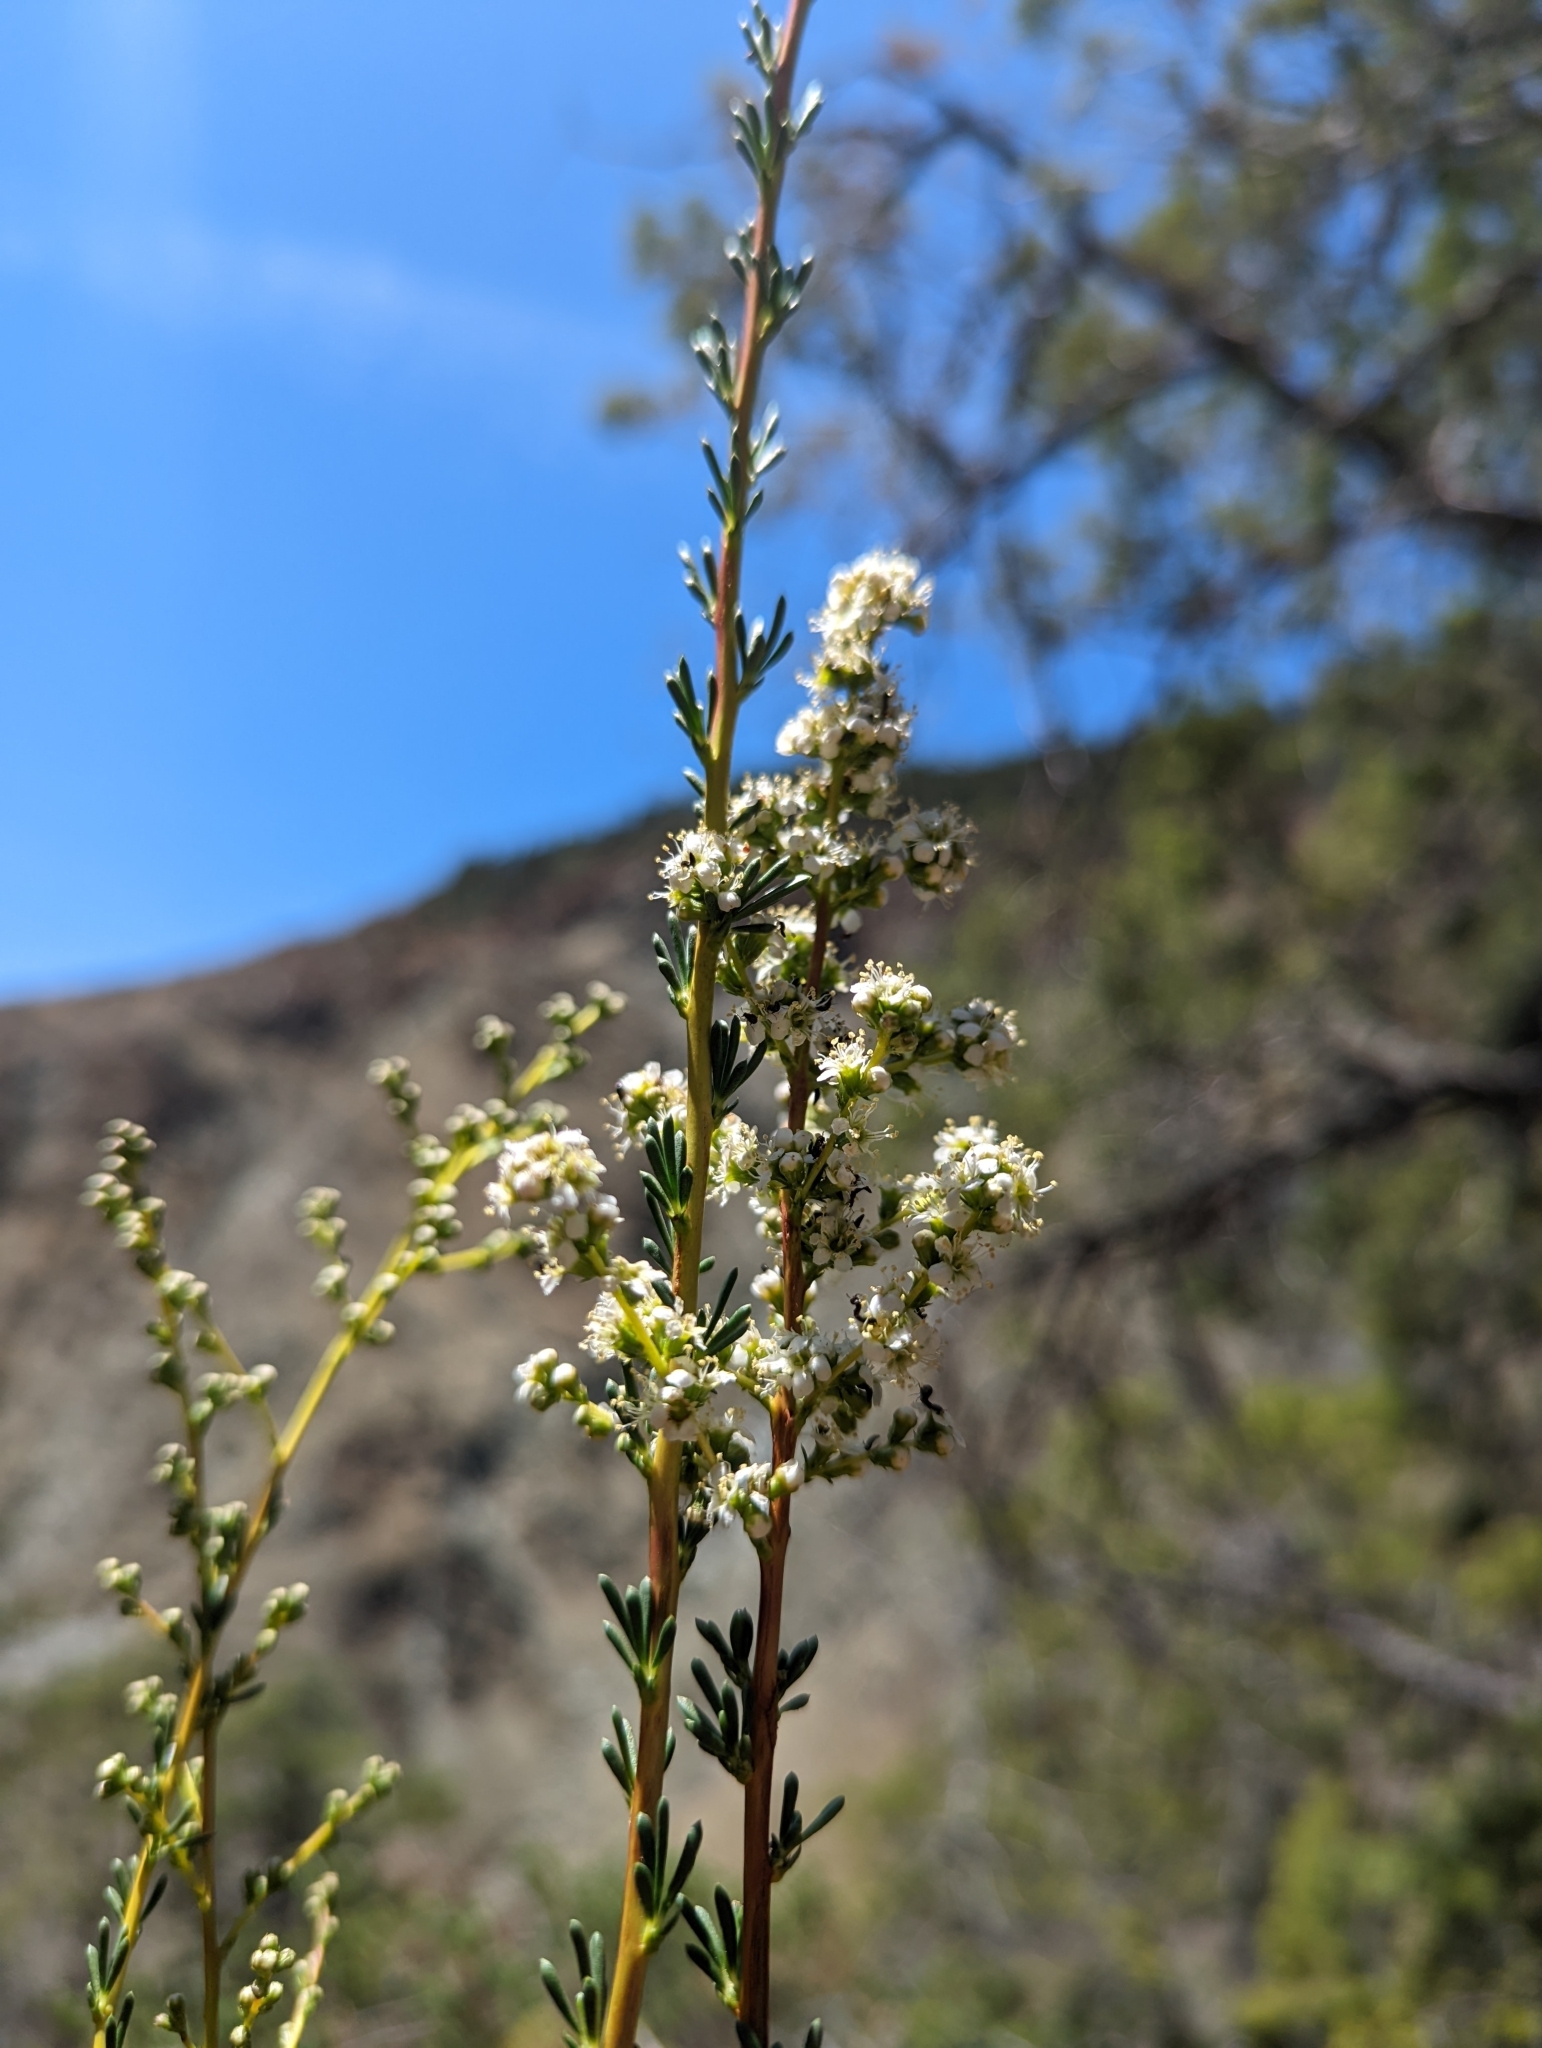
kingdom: Plantae
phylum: Tracheophyta
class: Magnoliopsida
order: Rosales
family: Rosaceae
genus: Adenostoma
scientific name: Adenostoma fasciculatum
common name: Chamise
